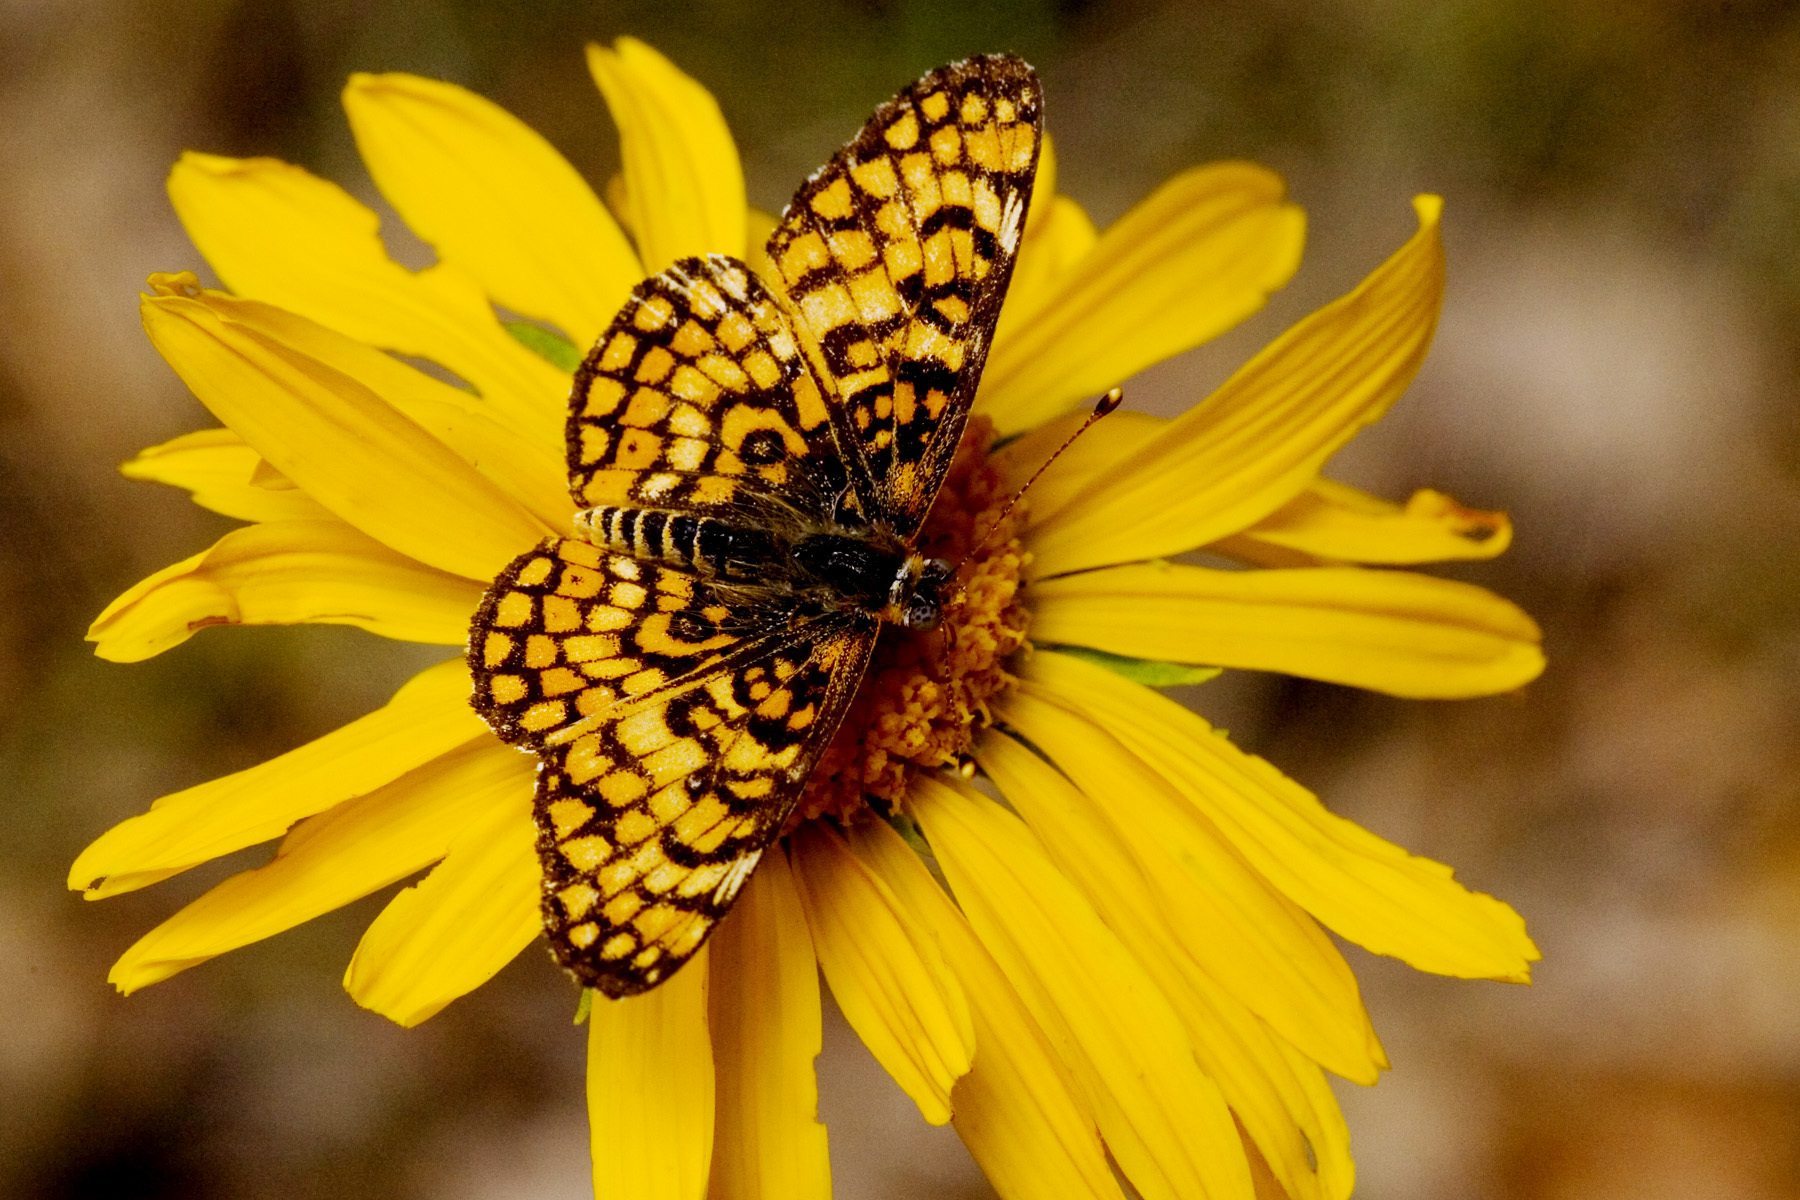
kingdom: Animalia
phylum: Arthropoda
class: Insecta
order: Lepidoptera
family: Nymphalidae
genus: Poladryas
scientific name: Poladryas minuta
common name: Dotted checkerspot
